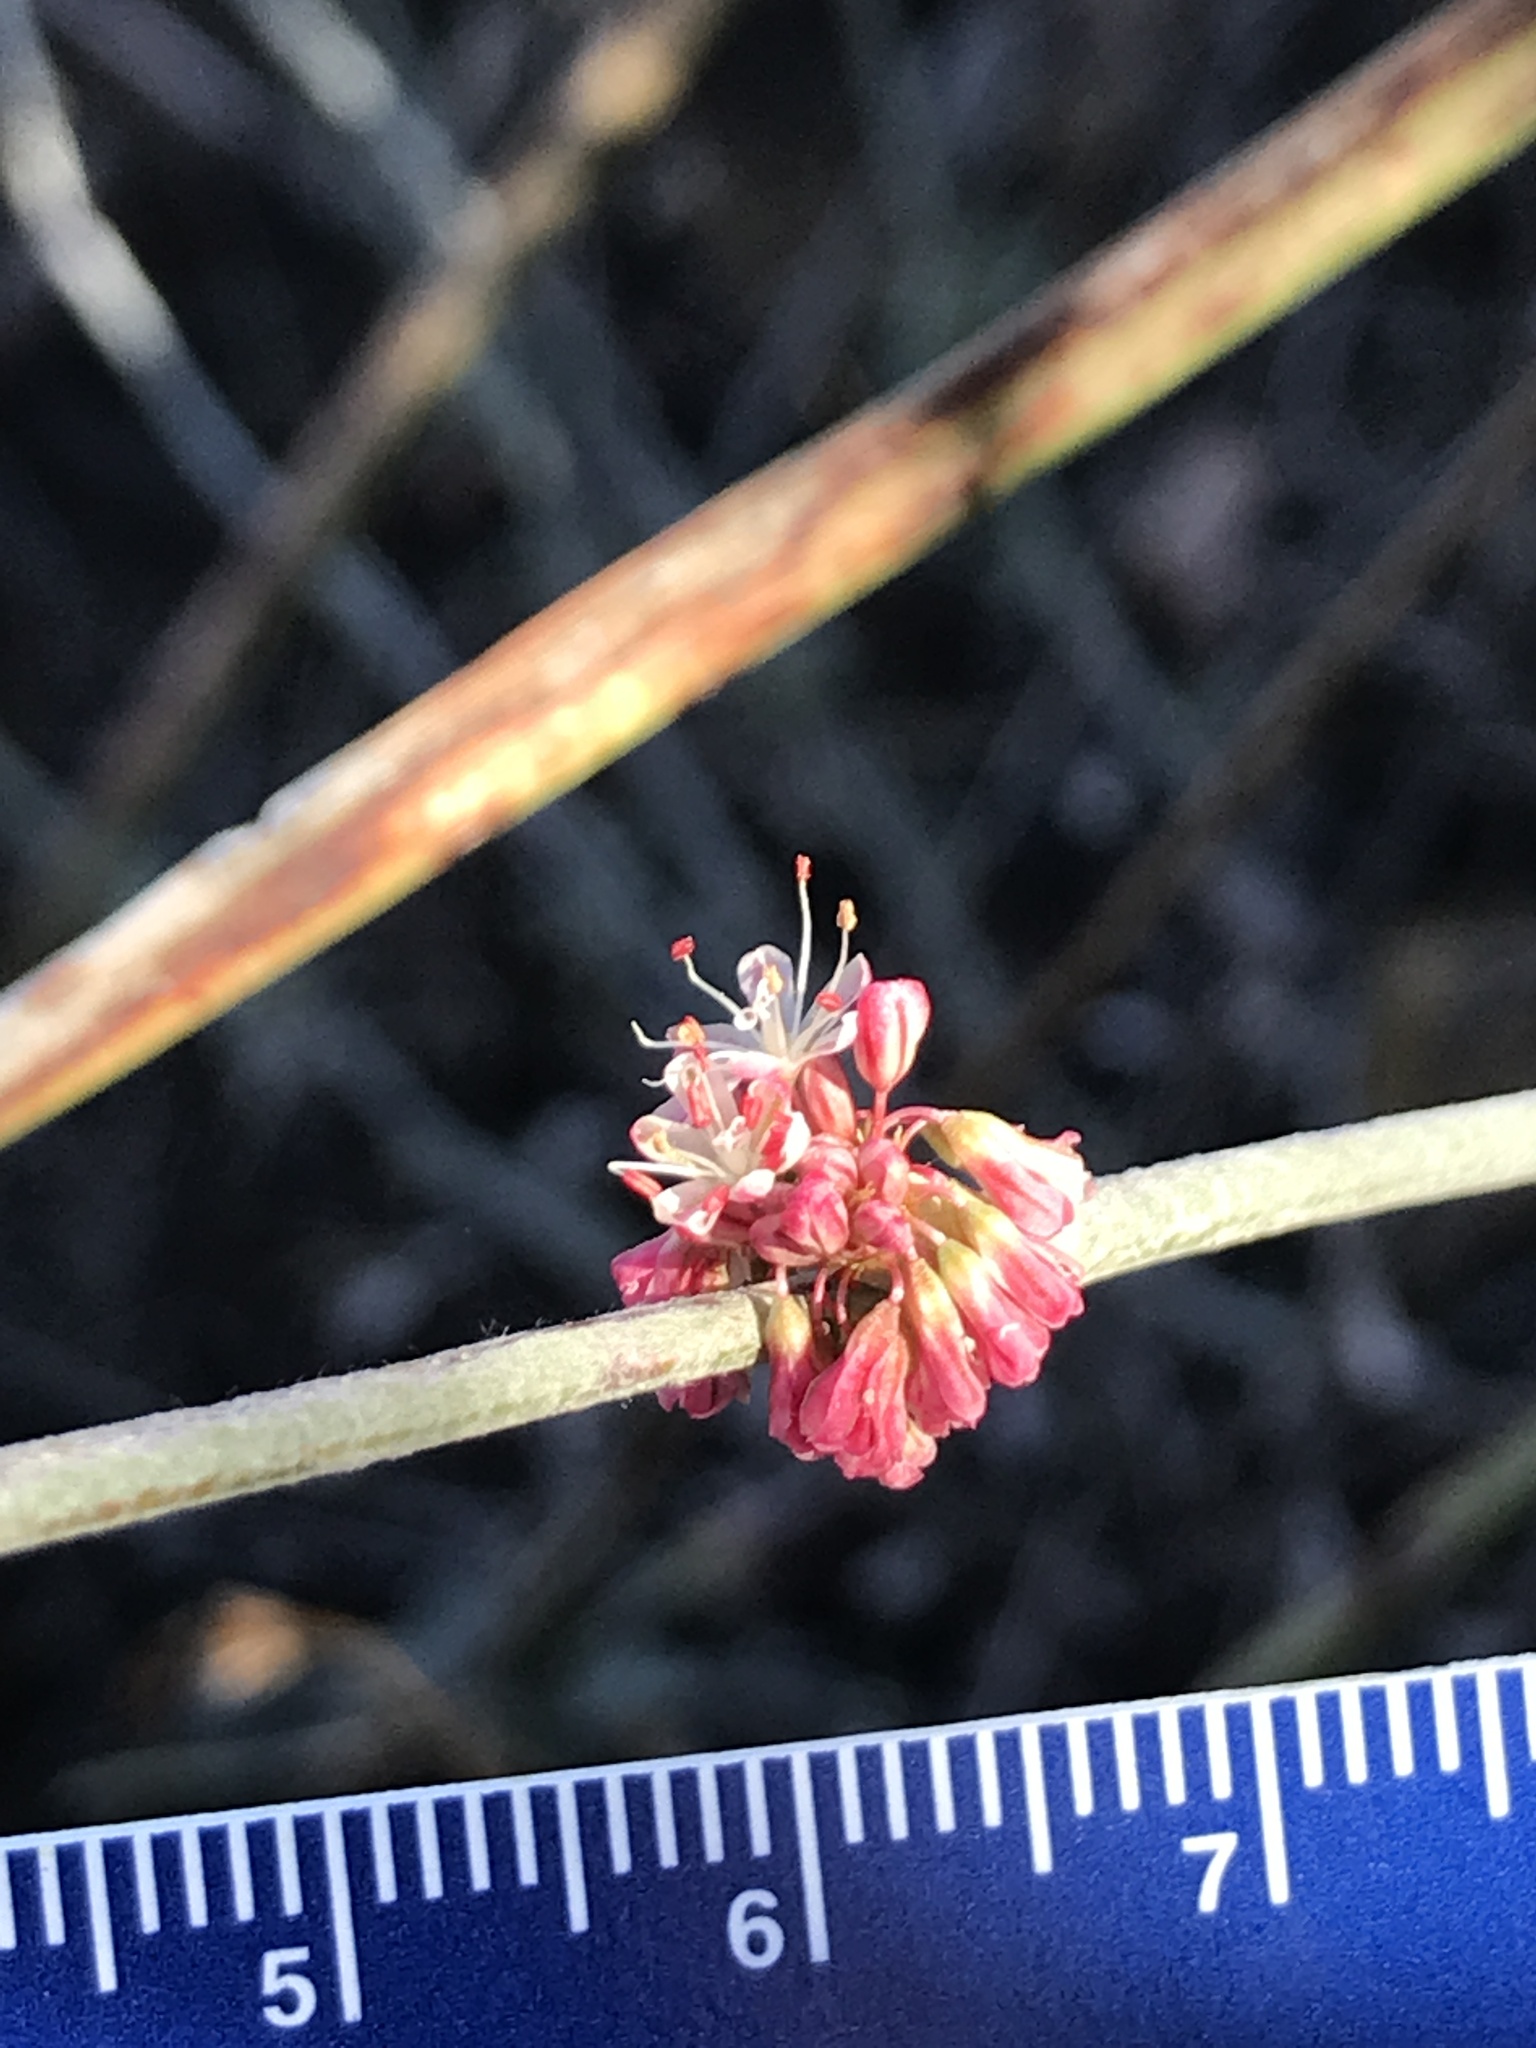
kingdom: Plantae
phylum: Tracheophyta
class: Magnoliopsida
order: Caryophyllales
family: Polygonaceae
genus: Eriogonum
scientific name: Eriogonum elongatum
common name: Long-stem wild buckwheat
